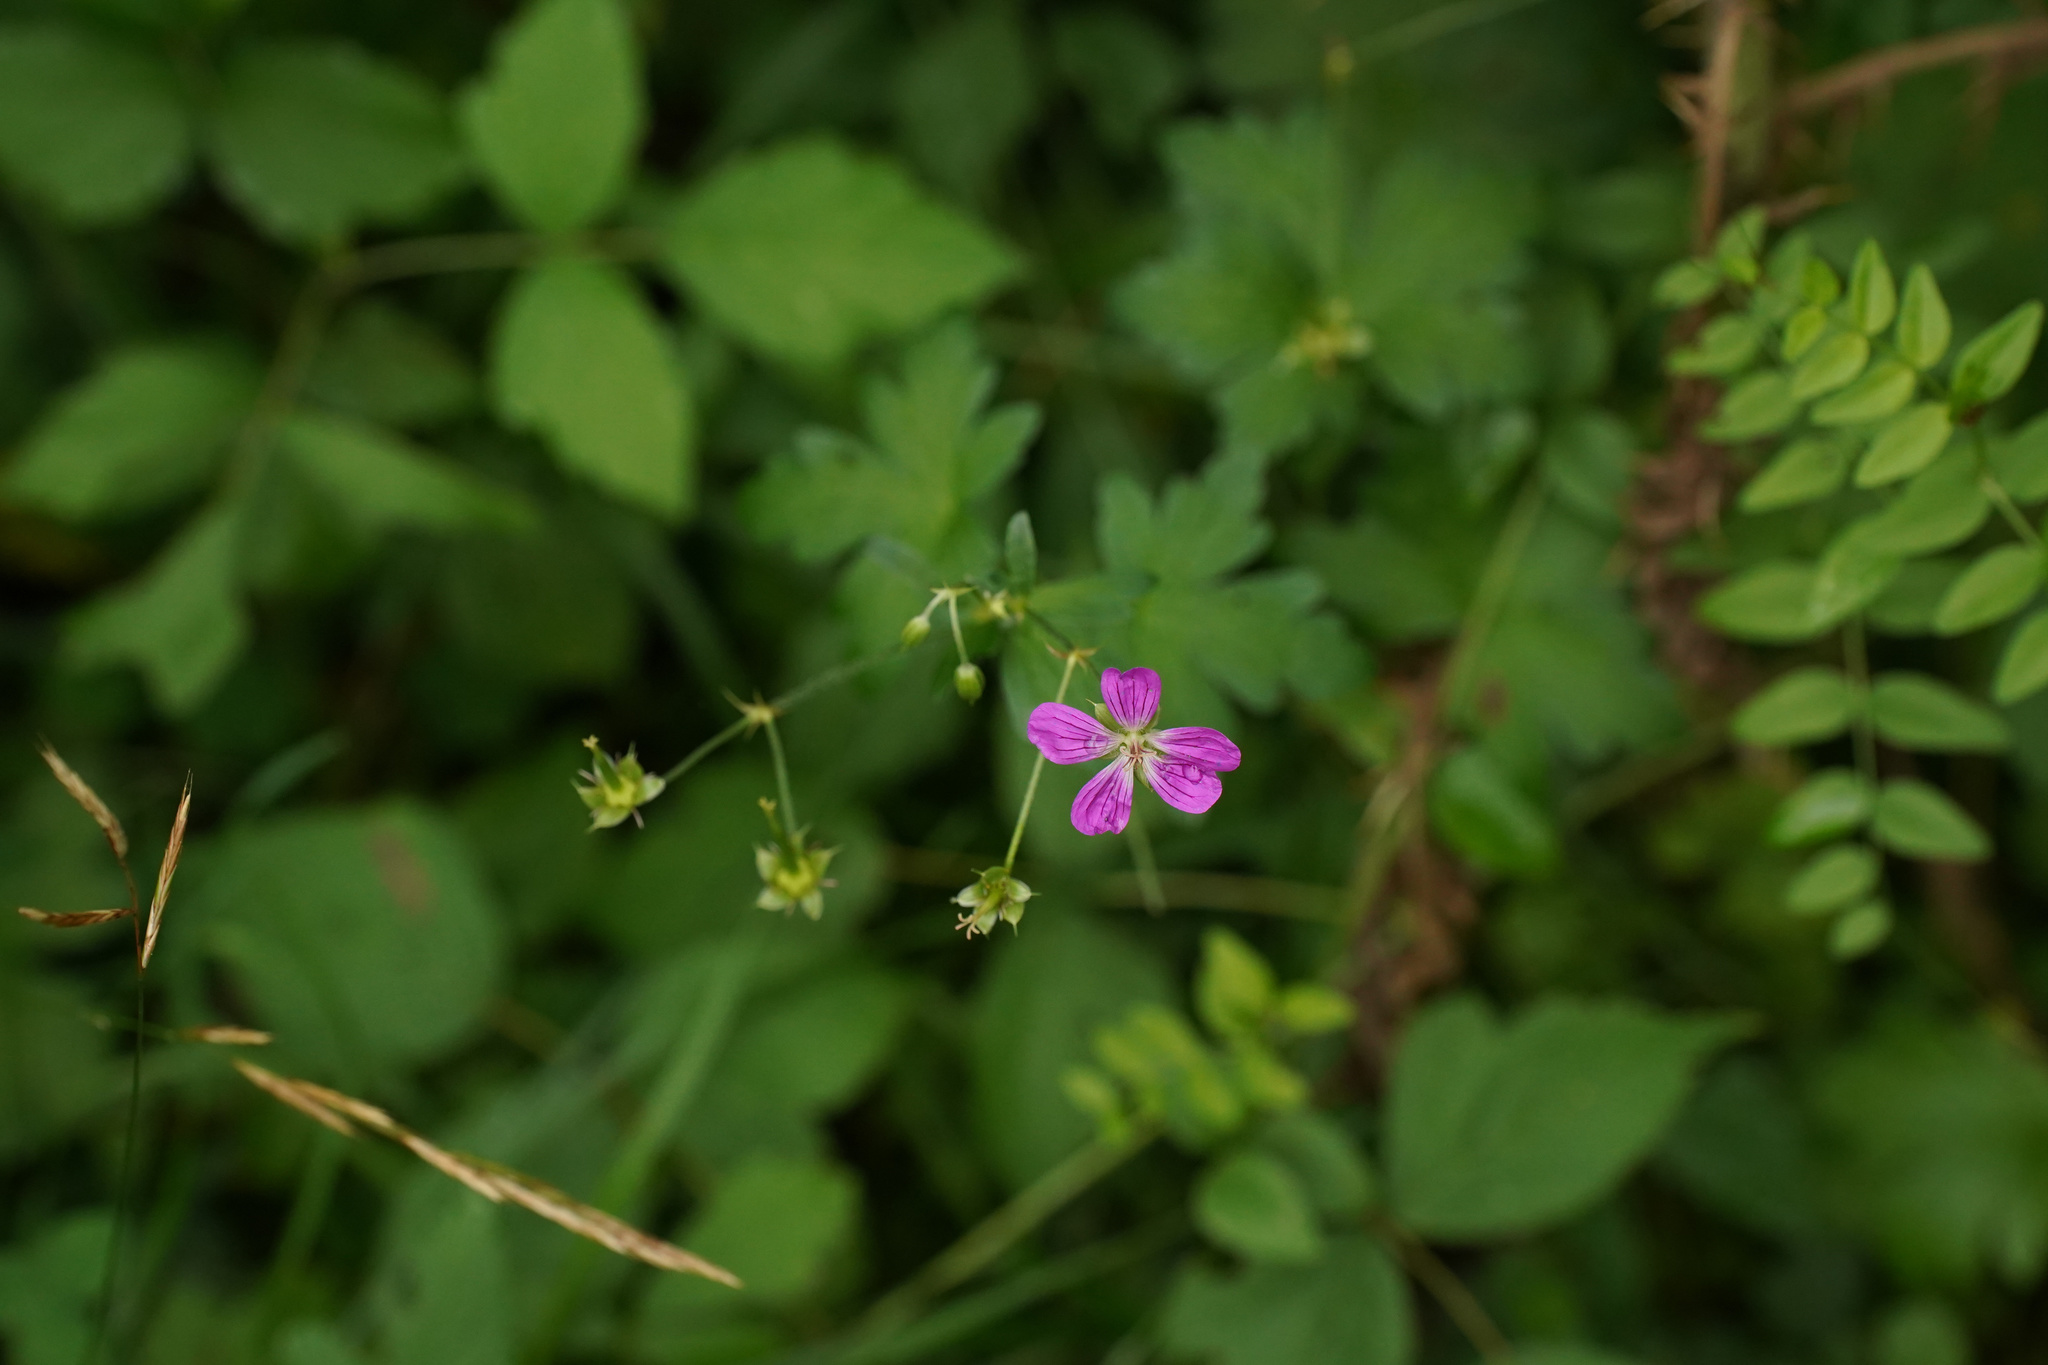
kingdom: Plantae
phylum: Tracheophyta
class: Magnoliopsida
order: Geraniales
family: Geraniaceae
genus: Geranium
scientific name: Geranium palustre
